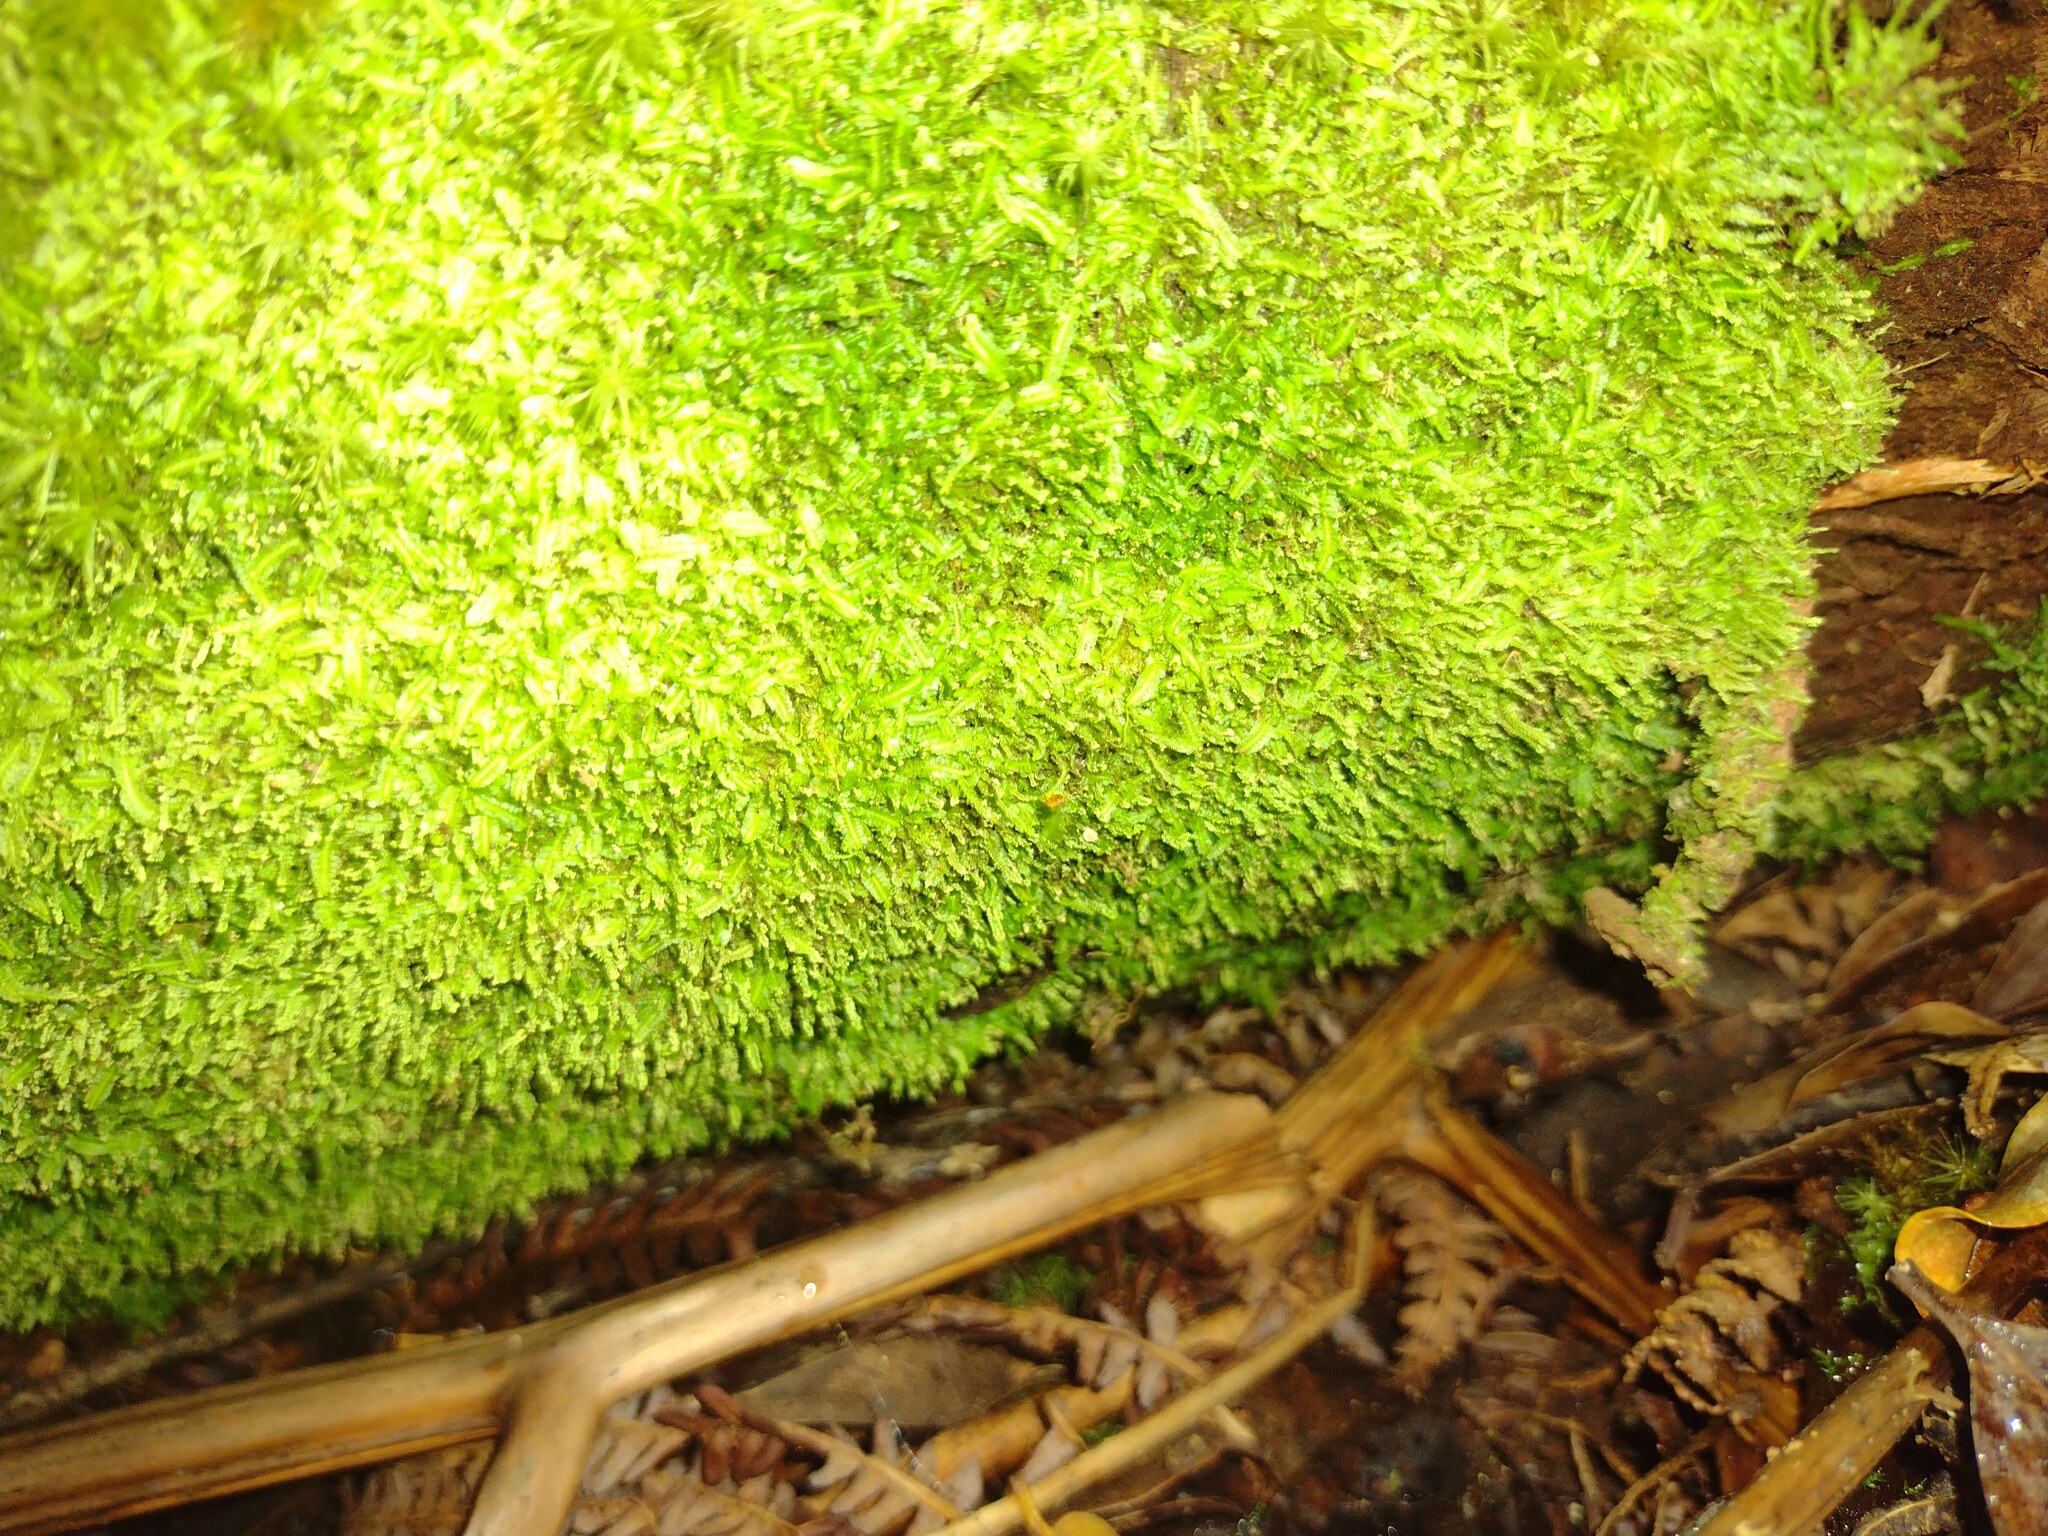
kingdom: Plantae
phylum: Marchantiophyta
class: Jungermanniopsida
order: Jungermanniales
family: Cephaloziaceae
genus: Odontoschisma
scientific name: Odontoschisma denudatum
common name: Matchstick flapwort
